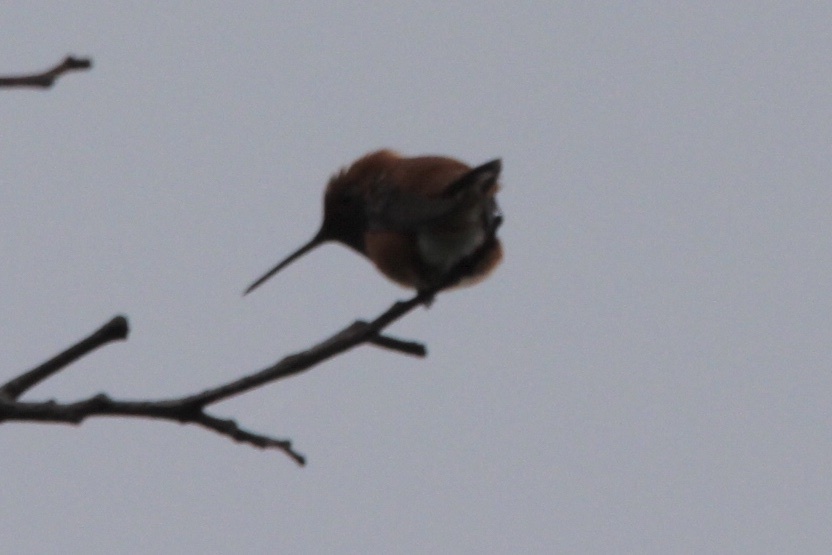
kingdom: Animalia
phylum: Chordata
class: Aves
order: Apodiformes
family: Trochilidae
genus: Selasphorus
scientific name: Selasphorus rufus
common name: Rufous hummingbird
